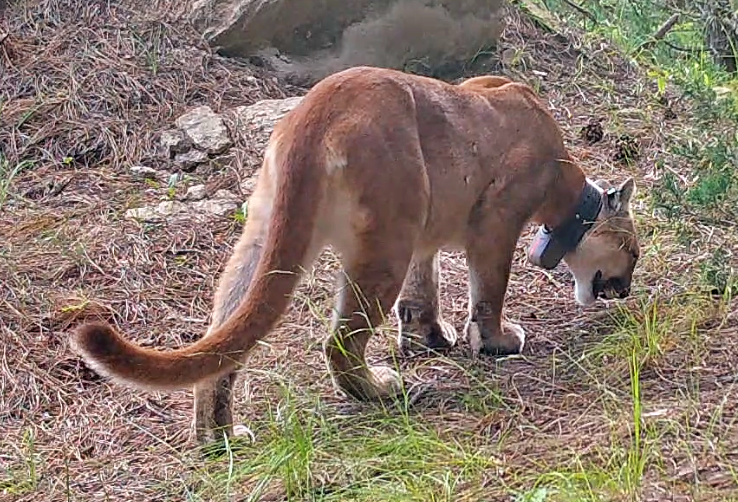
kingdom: Animalia
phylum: Chordata
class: Mammalia
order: Carnivora
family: Felidae
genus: Puma
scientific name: Puma concolor
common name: Puma
